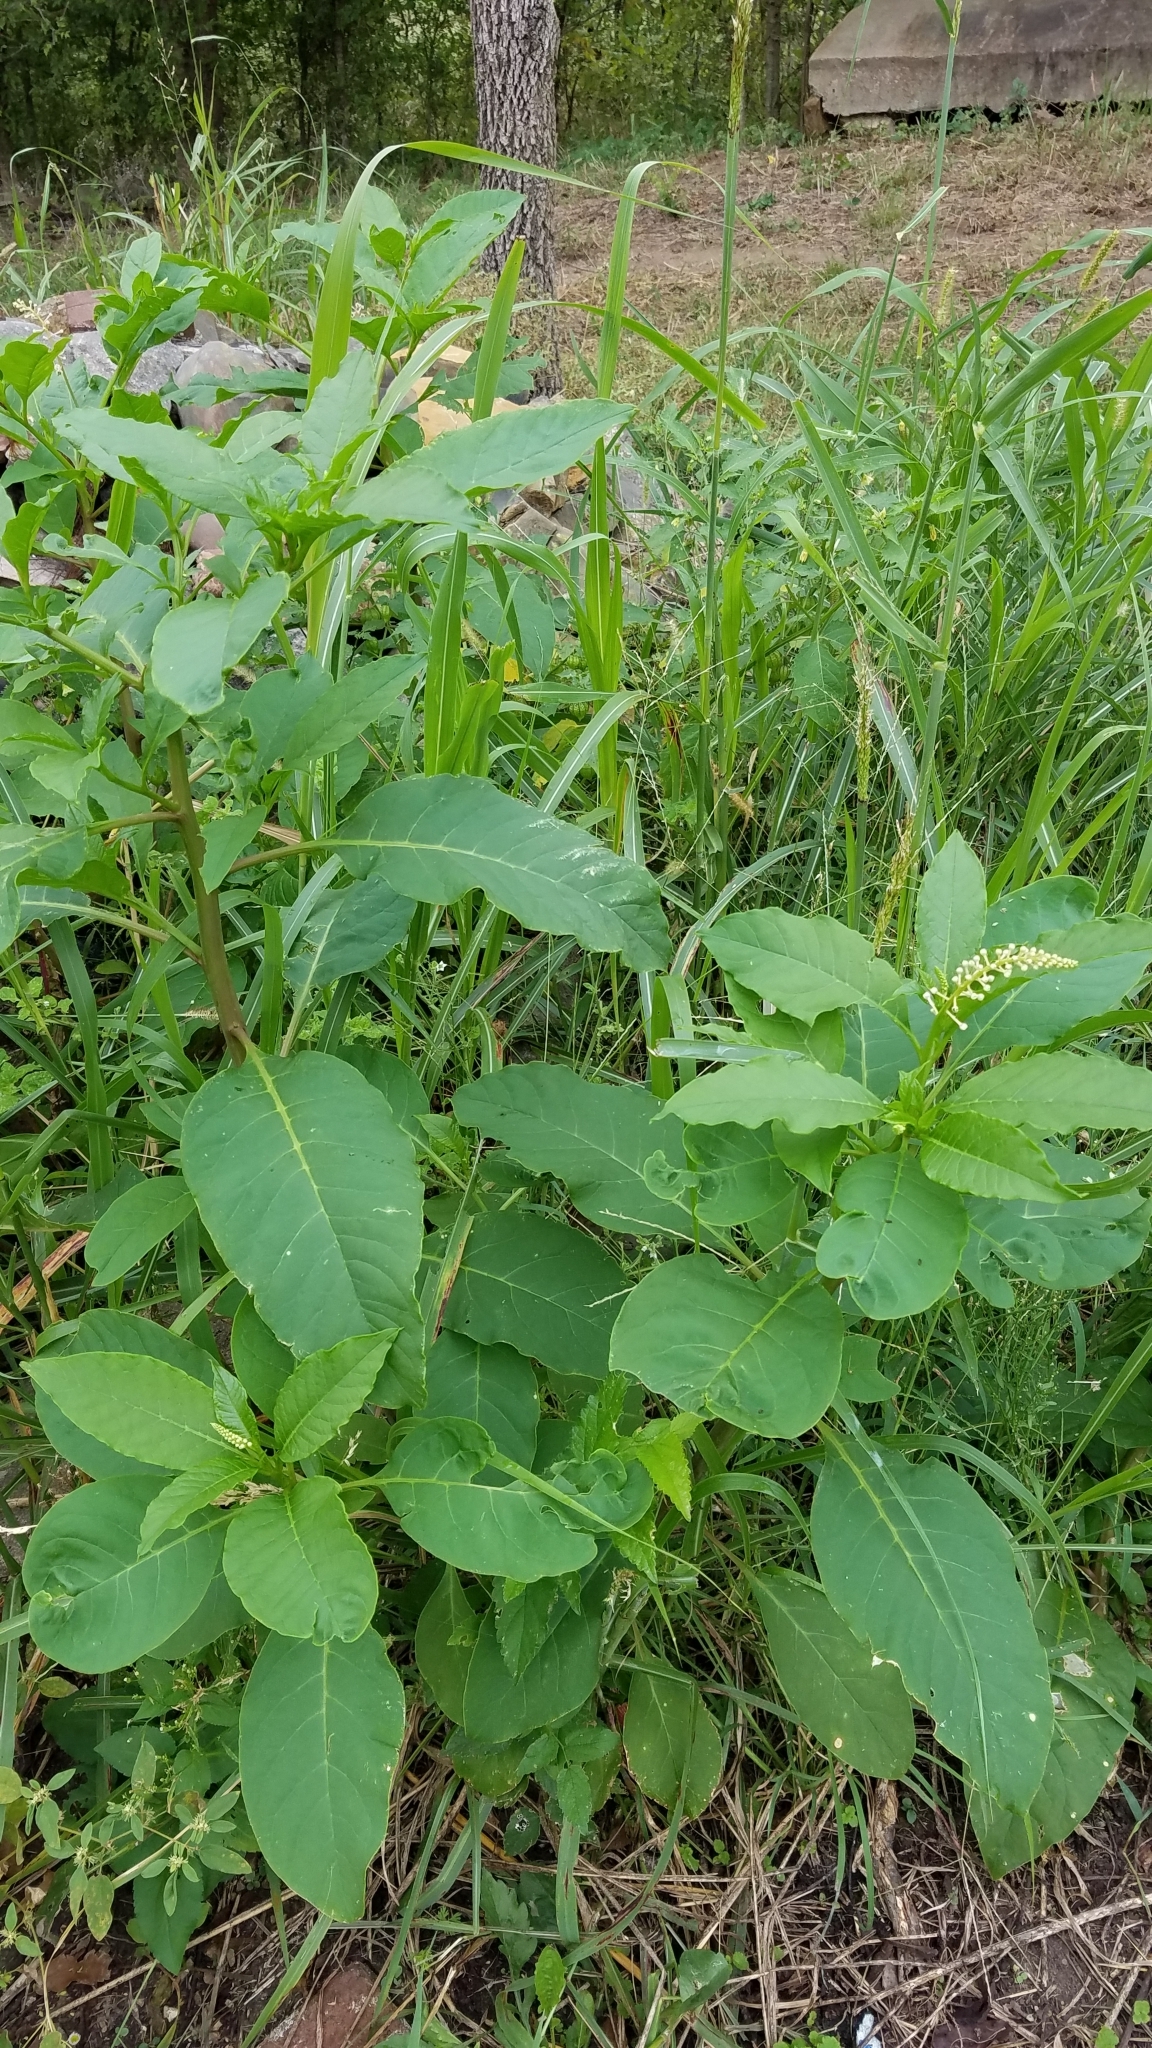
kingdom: Plantae
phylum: Tracheophyta
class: Magnoliopsida
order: Caryophyllales
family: Phytolaccaceae
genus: Phytolacca
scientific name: Phytolacca americana
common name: American pokeweed
